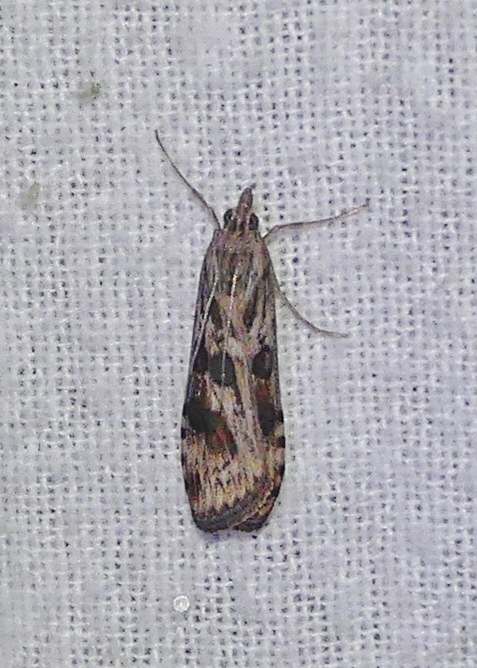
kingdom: Animalia
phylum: Arthropoda
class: Insecta
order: Lepidoptera
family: Crambidae
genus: Nomophila
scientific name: Nomophila nearctica
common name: American rush veneer
